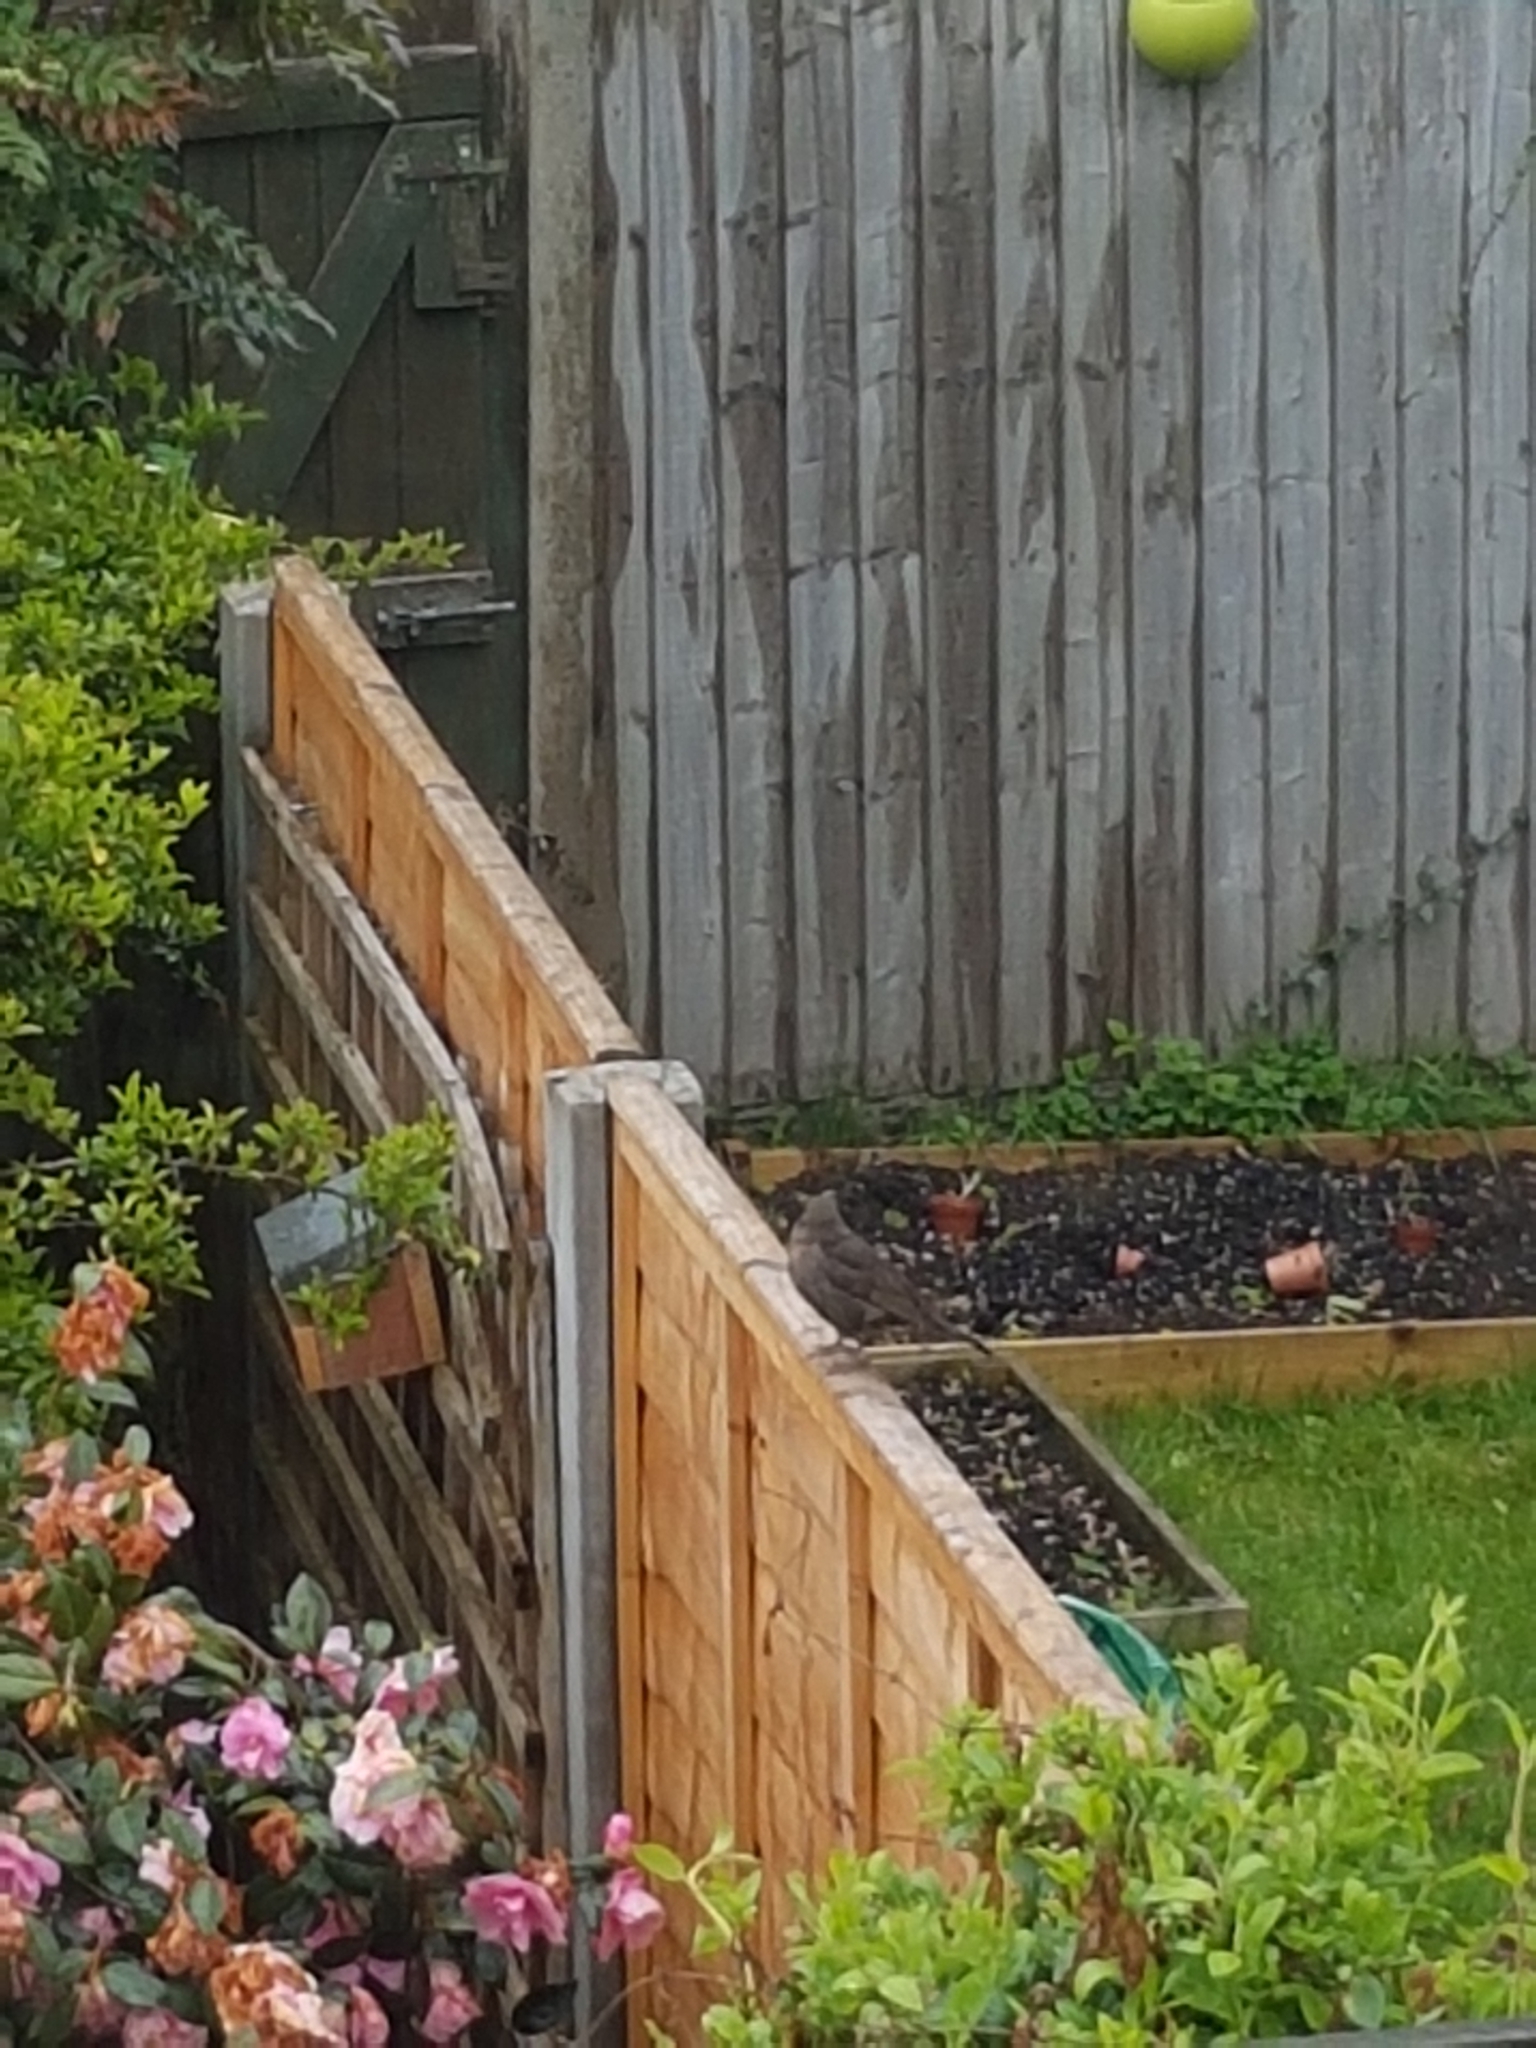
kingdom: Animalia
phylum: Chordata
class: Aves
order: Passeriformes
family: Turdidae
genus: Turdus
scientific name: Turdus merula
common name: Common blackbird
